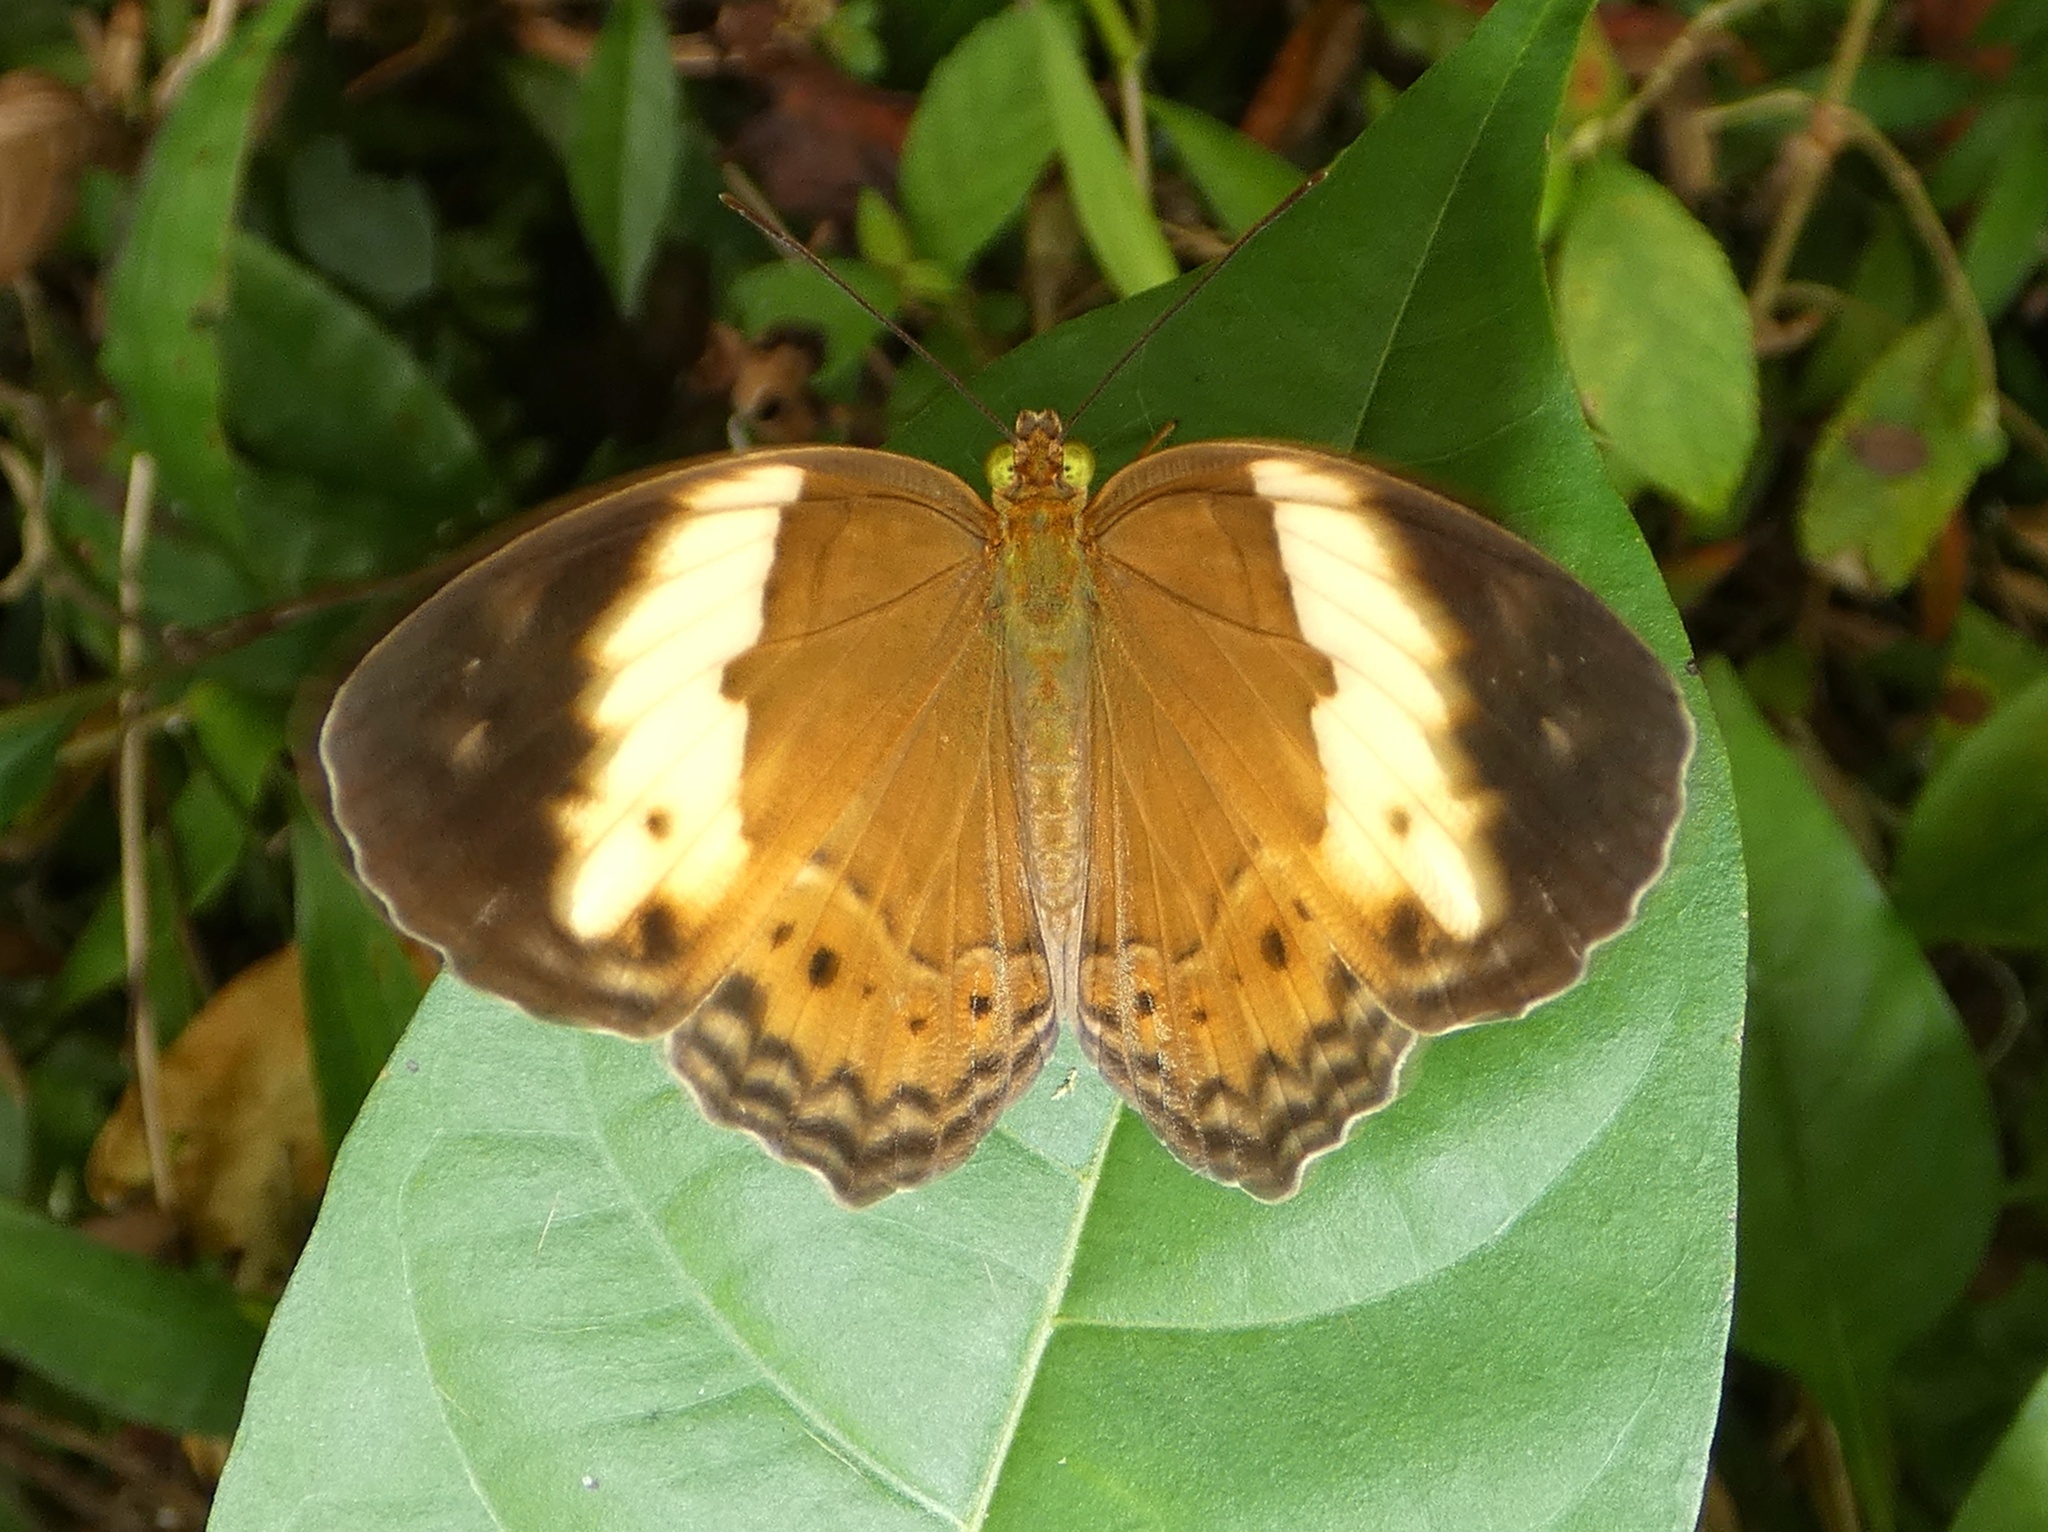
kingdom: Animalia
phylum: Arthropoda
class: Insecta
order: Lepidoptera
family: Nymphalidae
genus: Cupha
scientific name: Cupha arias
